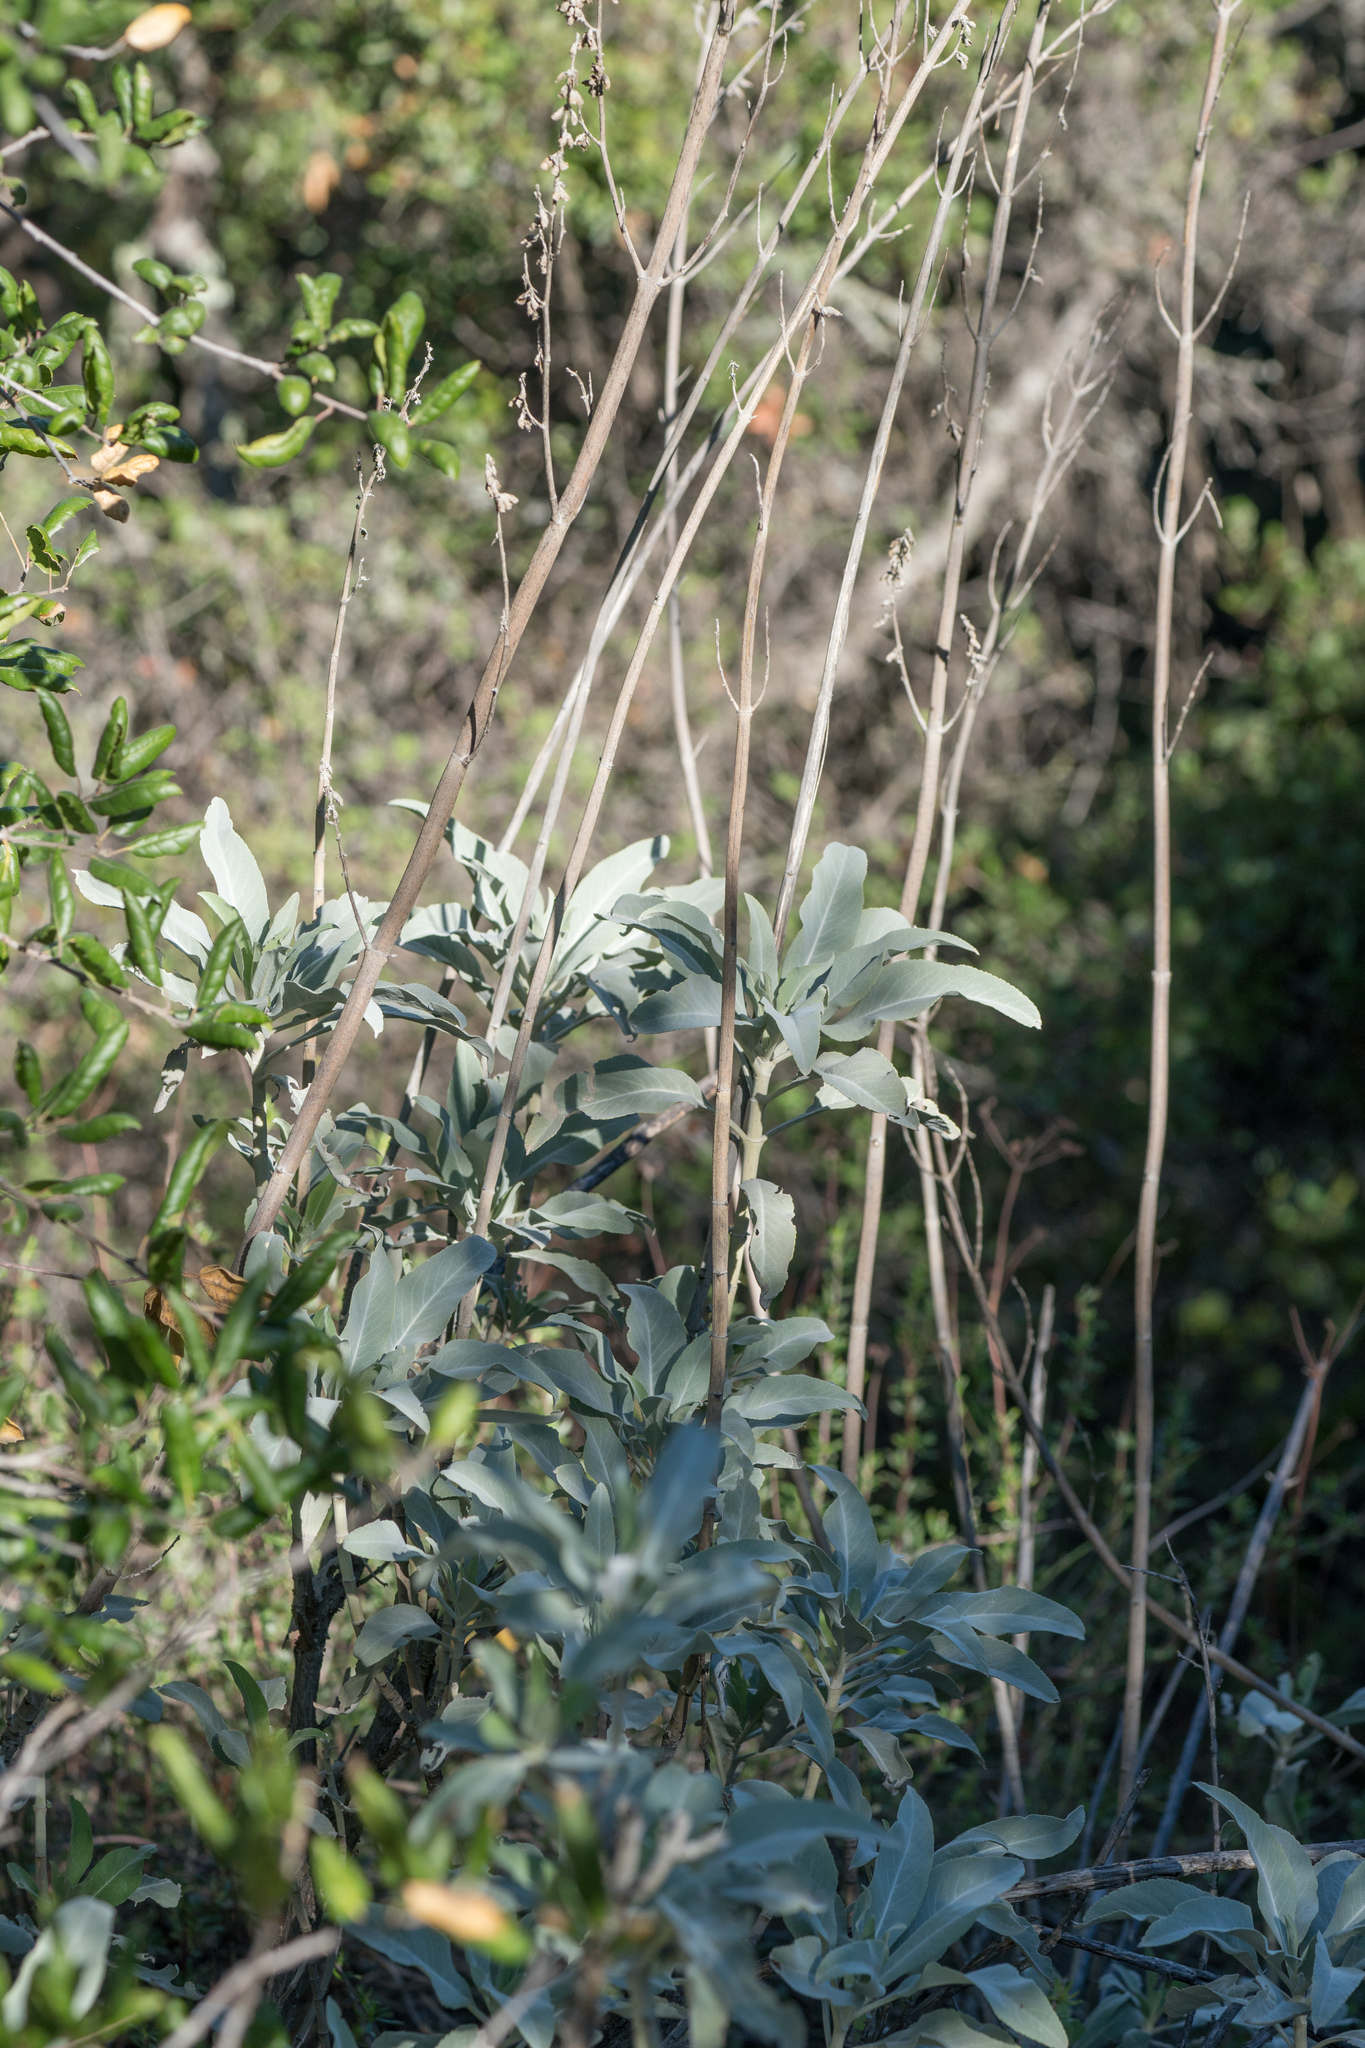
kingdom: Plantae
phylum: Tracheophyta
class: Magnoliopsida
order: Lamiales
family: Lamiaceae
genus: Salvia
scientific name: Salvia apiana
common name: White sage
